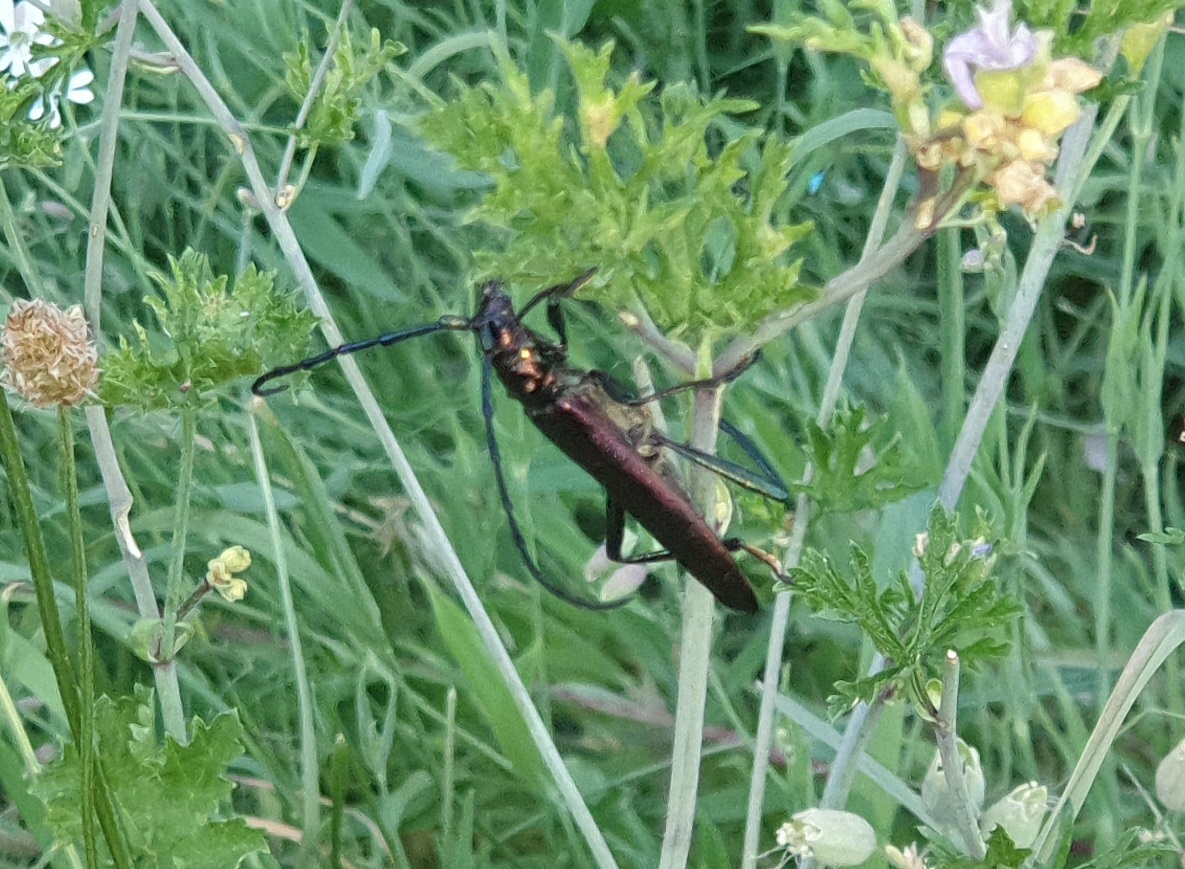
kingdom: Animalia
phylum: Arthropoda
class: Insecta
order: Coleoptera
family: Cerambycidae
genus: Aromia
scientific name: Aromia moschata
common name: Musk beetle
